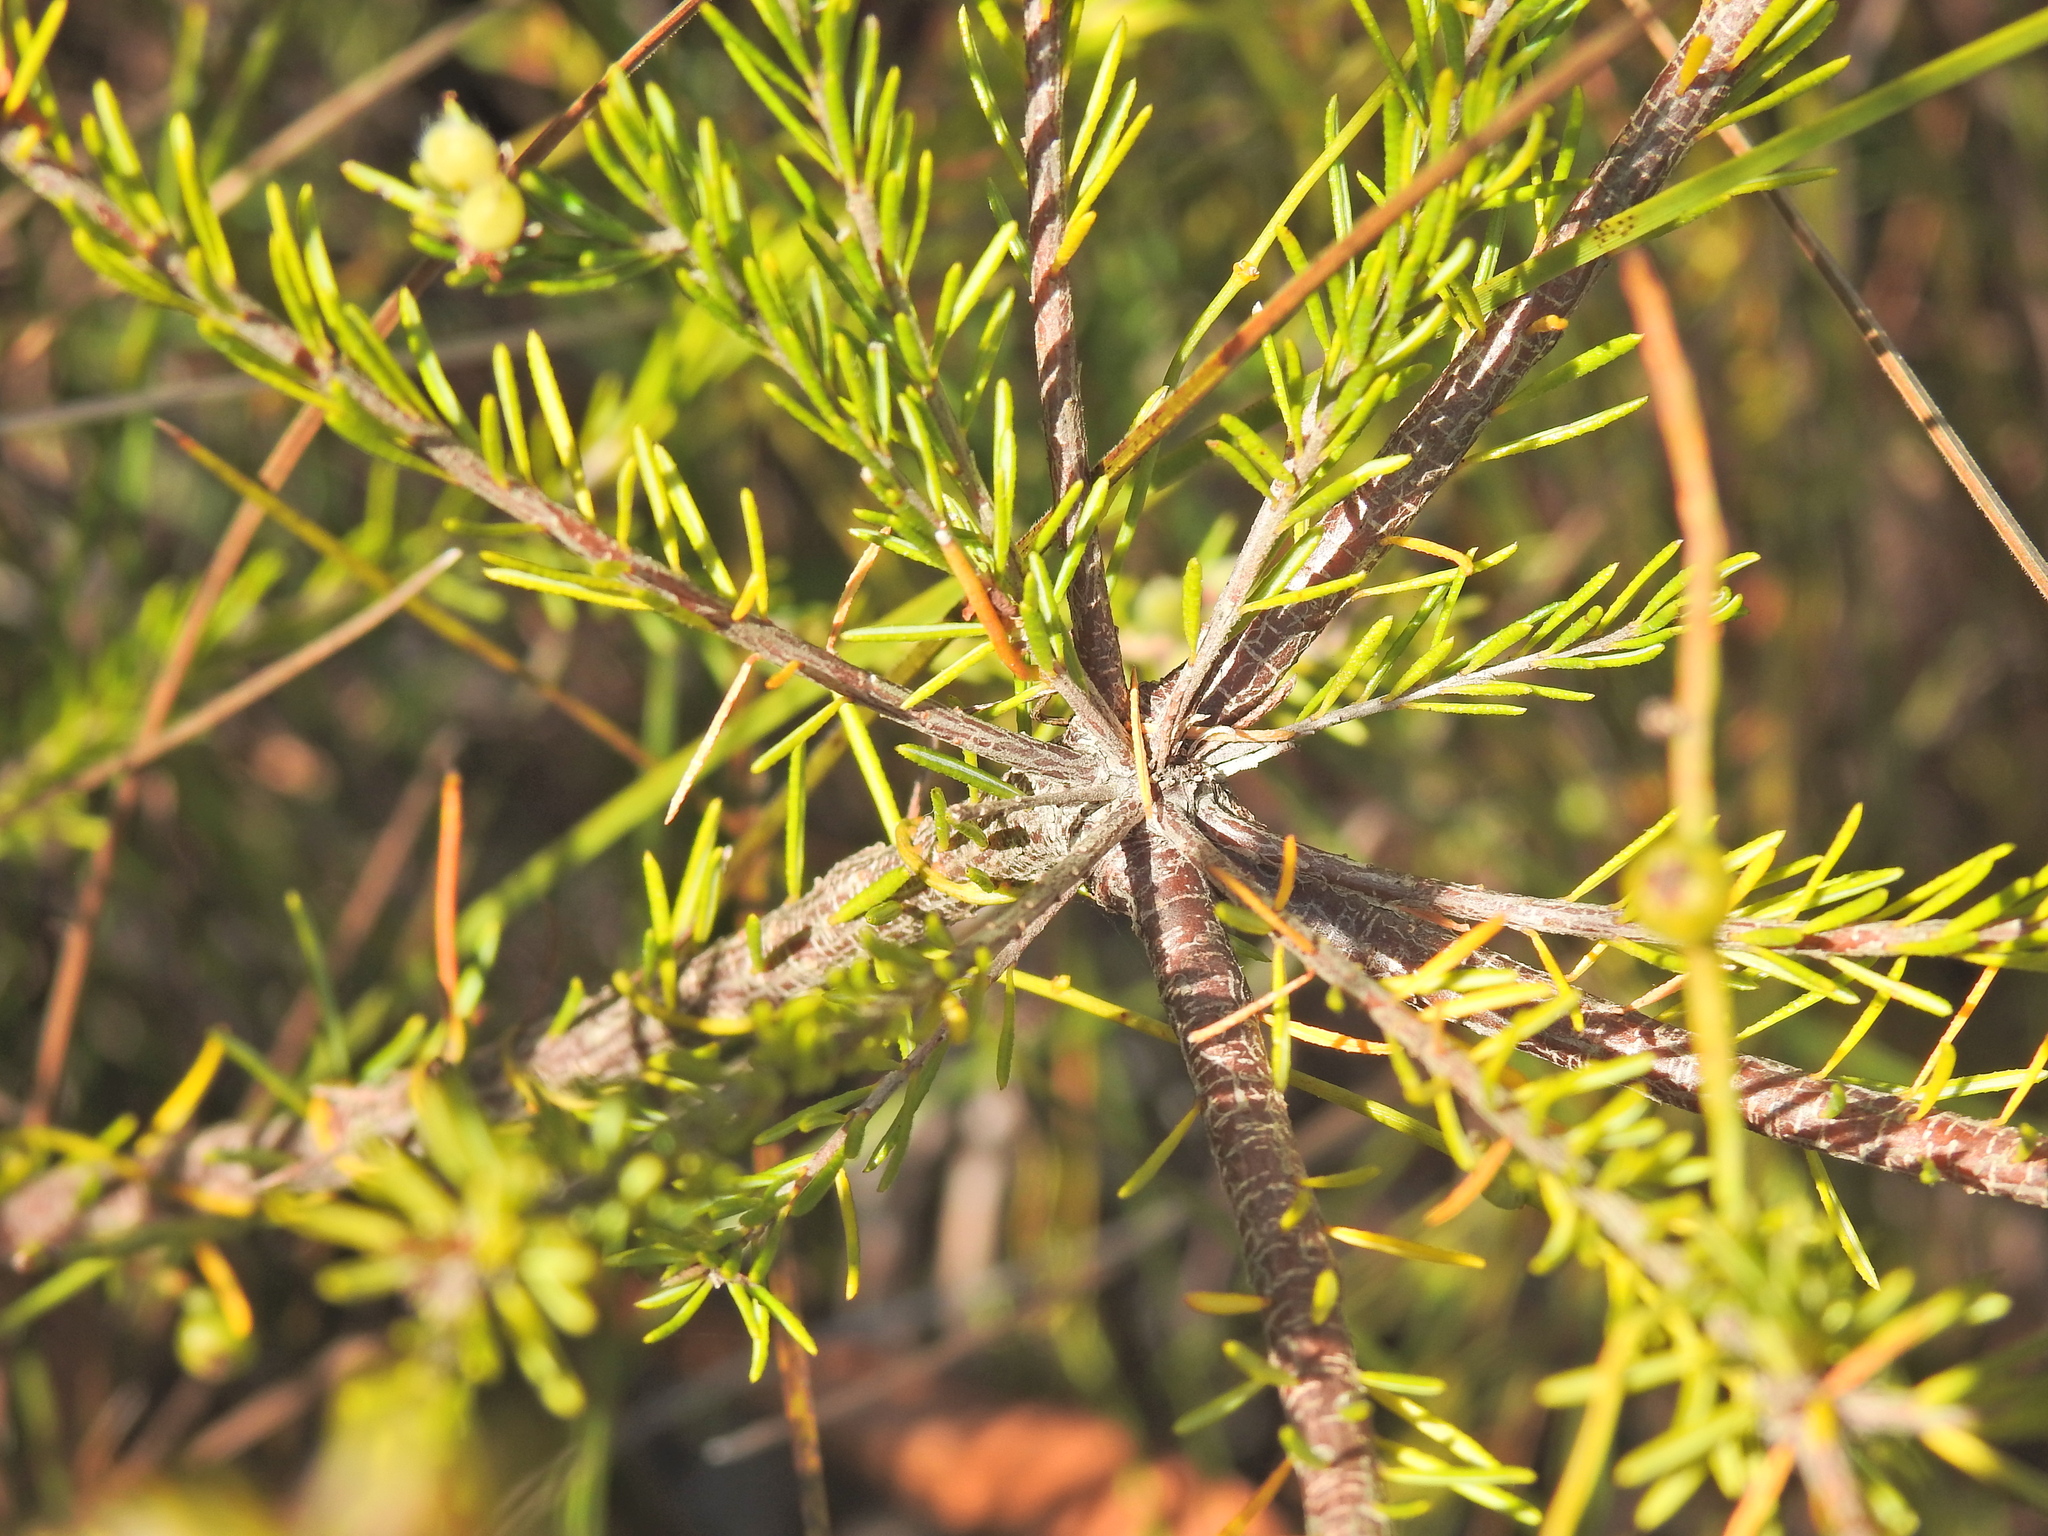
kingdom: Plantae
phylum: Tracheophyta
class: Magnoliopsida
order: Fabales
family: Fabaceae
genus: Phyllota
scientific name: Phyllota phylicoides
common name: Heath phyllota
